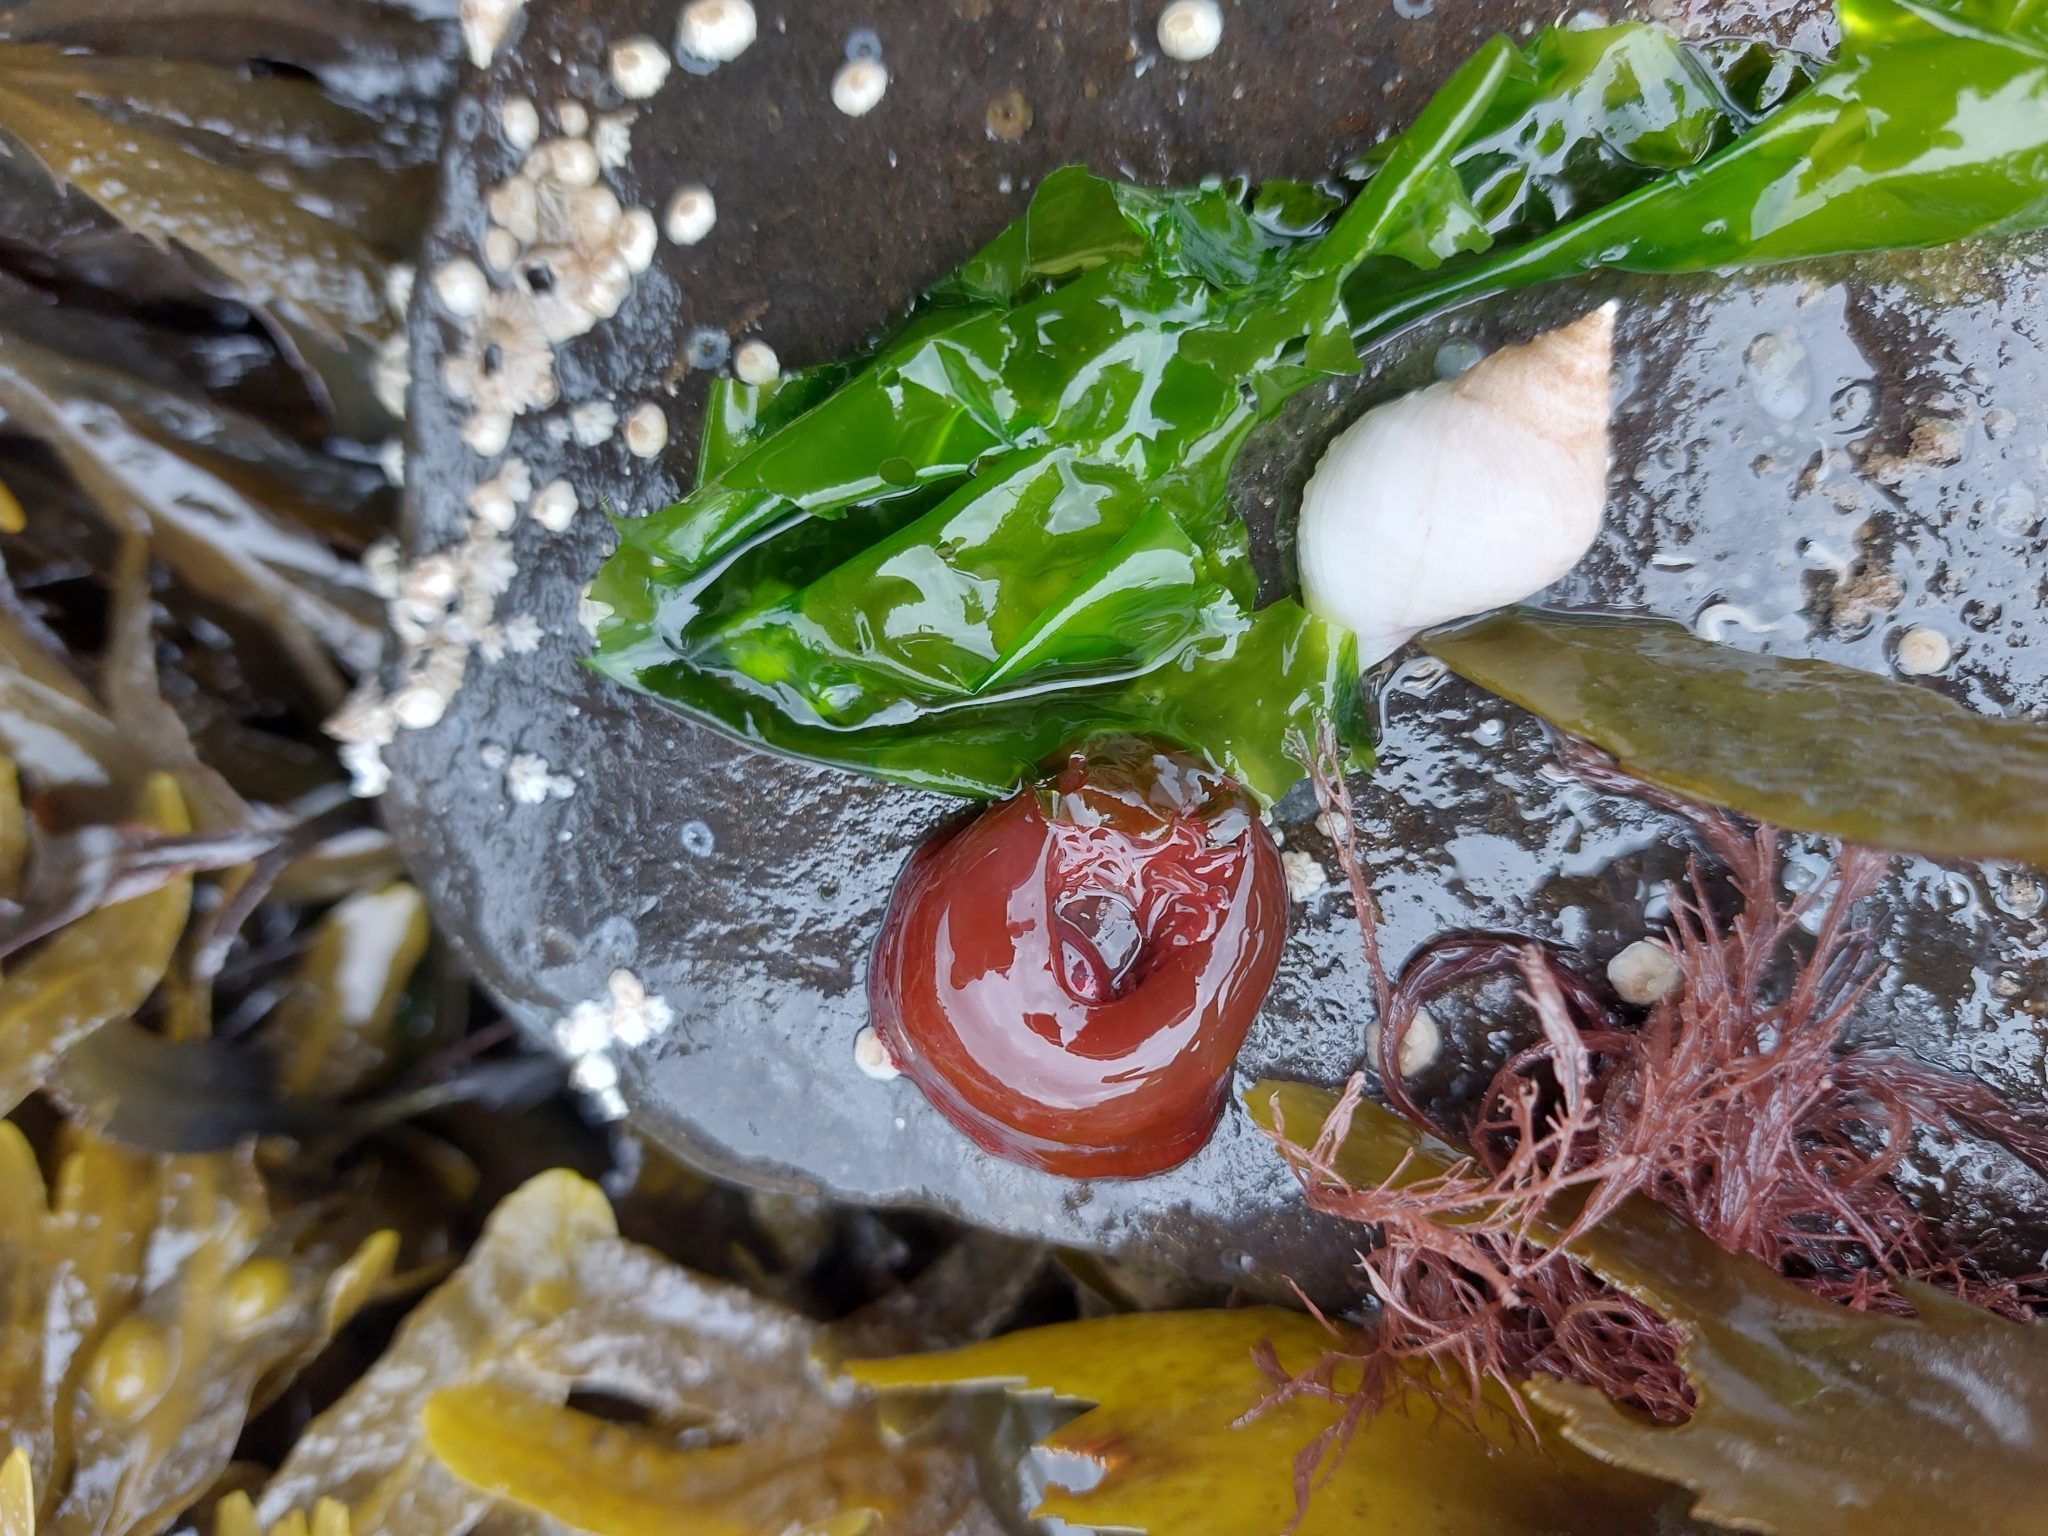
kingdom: Animalia
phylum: Cnidaria
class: Anthozoa
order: Actiniaria
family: Actiniidae
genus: Actinia
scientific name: Actinia equina
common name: Beadlet anemone
